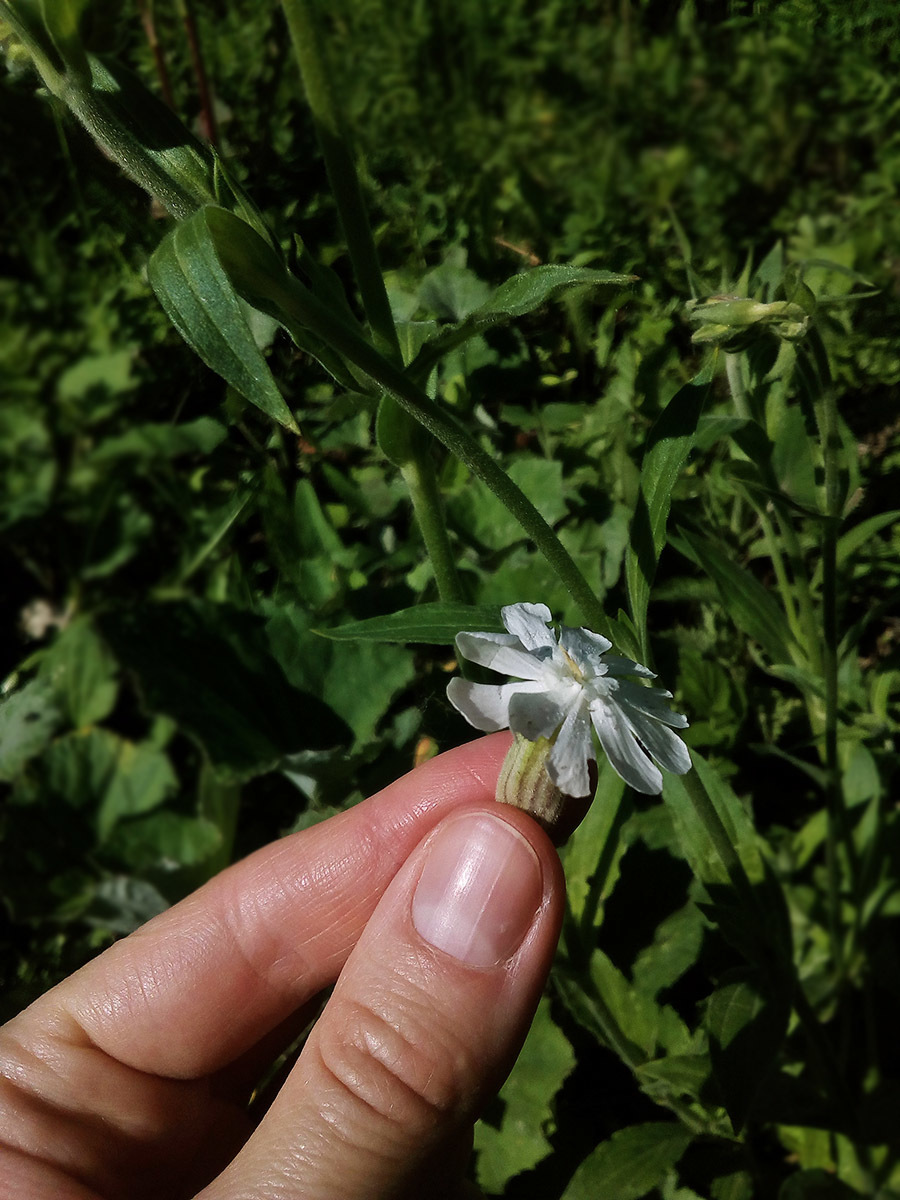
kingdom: Plantae
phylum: Tracheophyta
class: Magnoliopsida
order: Caryophyllales
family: Caryophyllaceae
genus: Silene
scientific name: Silene latifolia
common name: White campion
